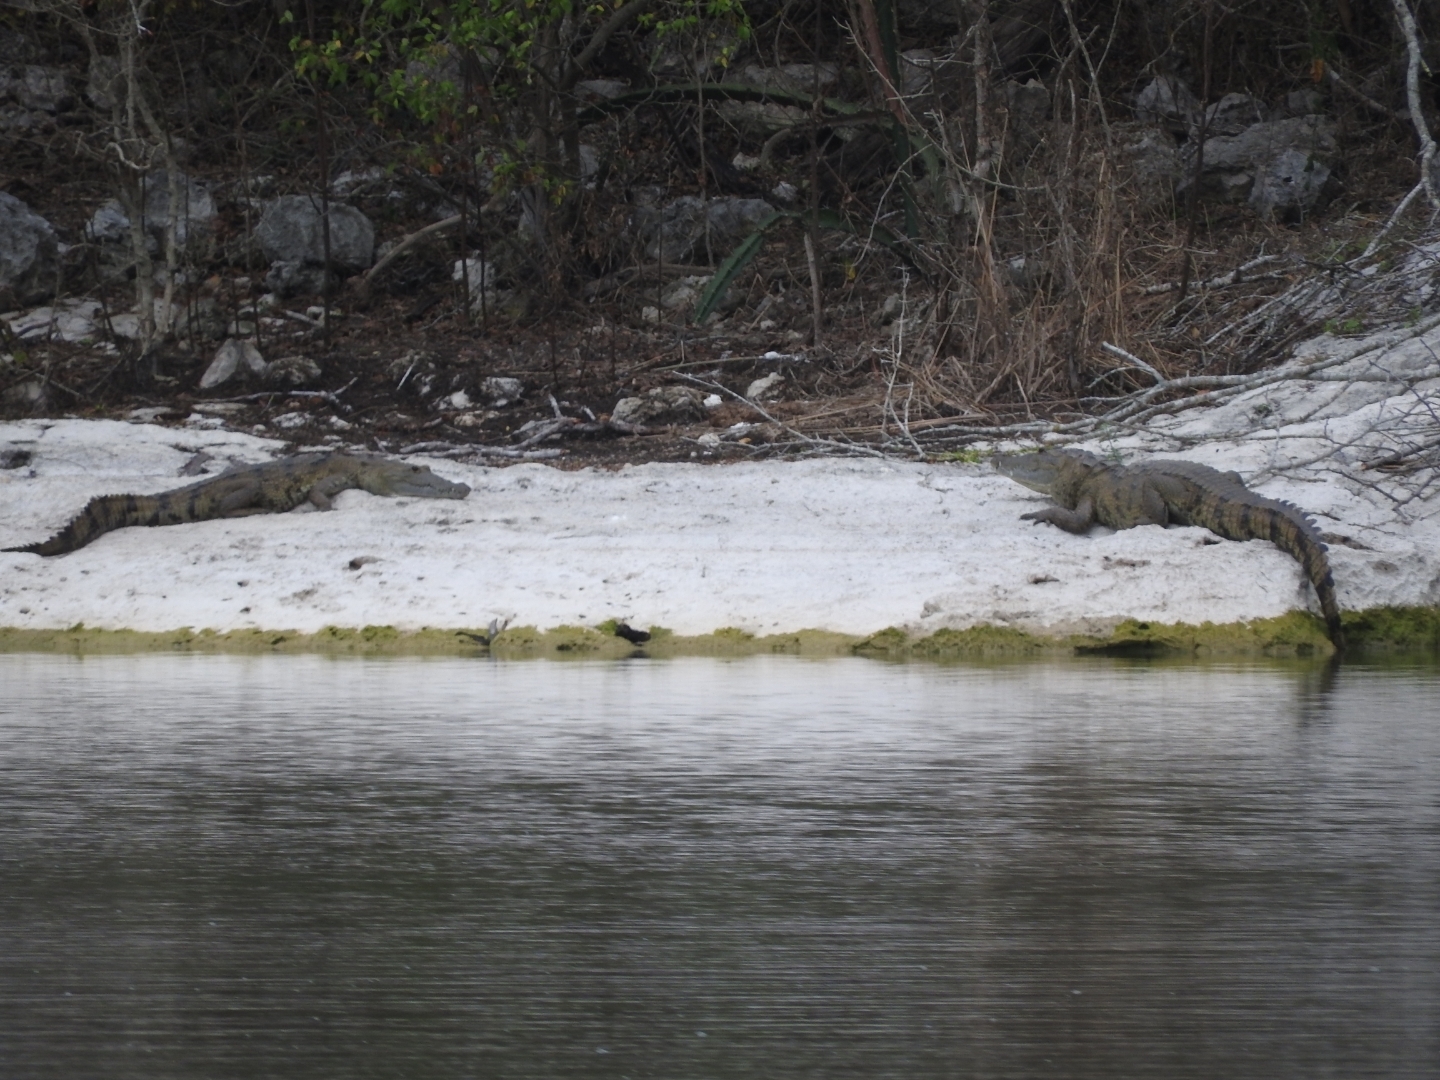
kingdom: Animalia
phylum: Chordata
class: Crocodylia
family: Crocodylidae
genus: Crocodylus
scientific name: Crocodylus moreletii
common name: Morelet's crocodile
